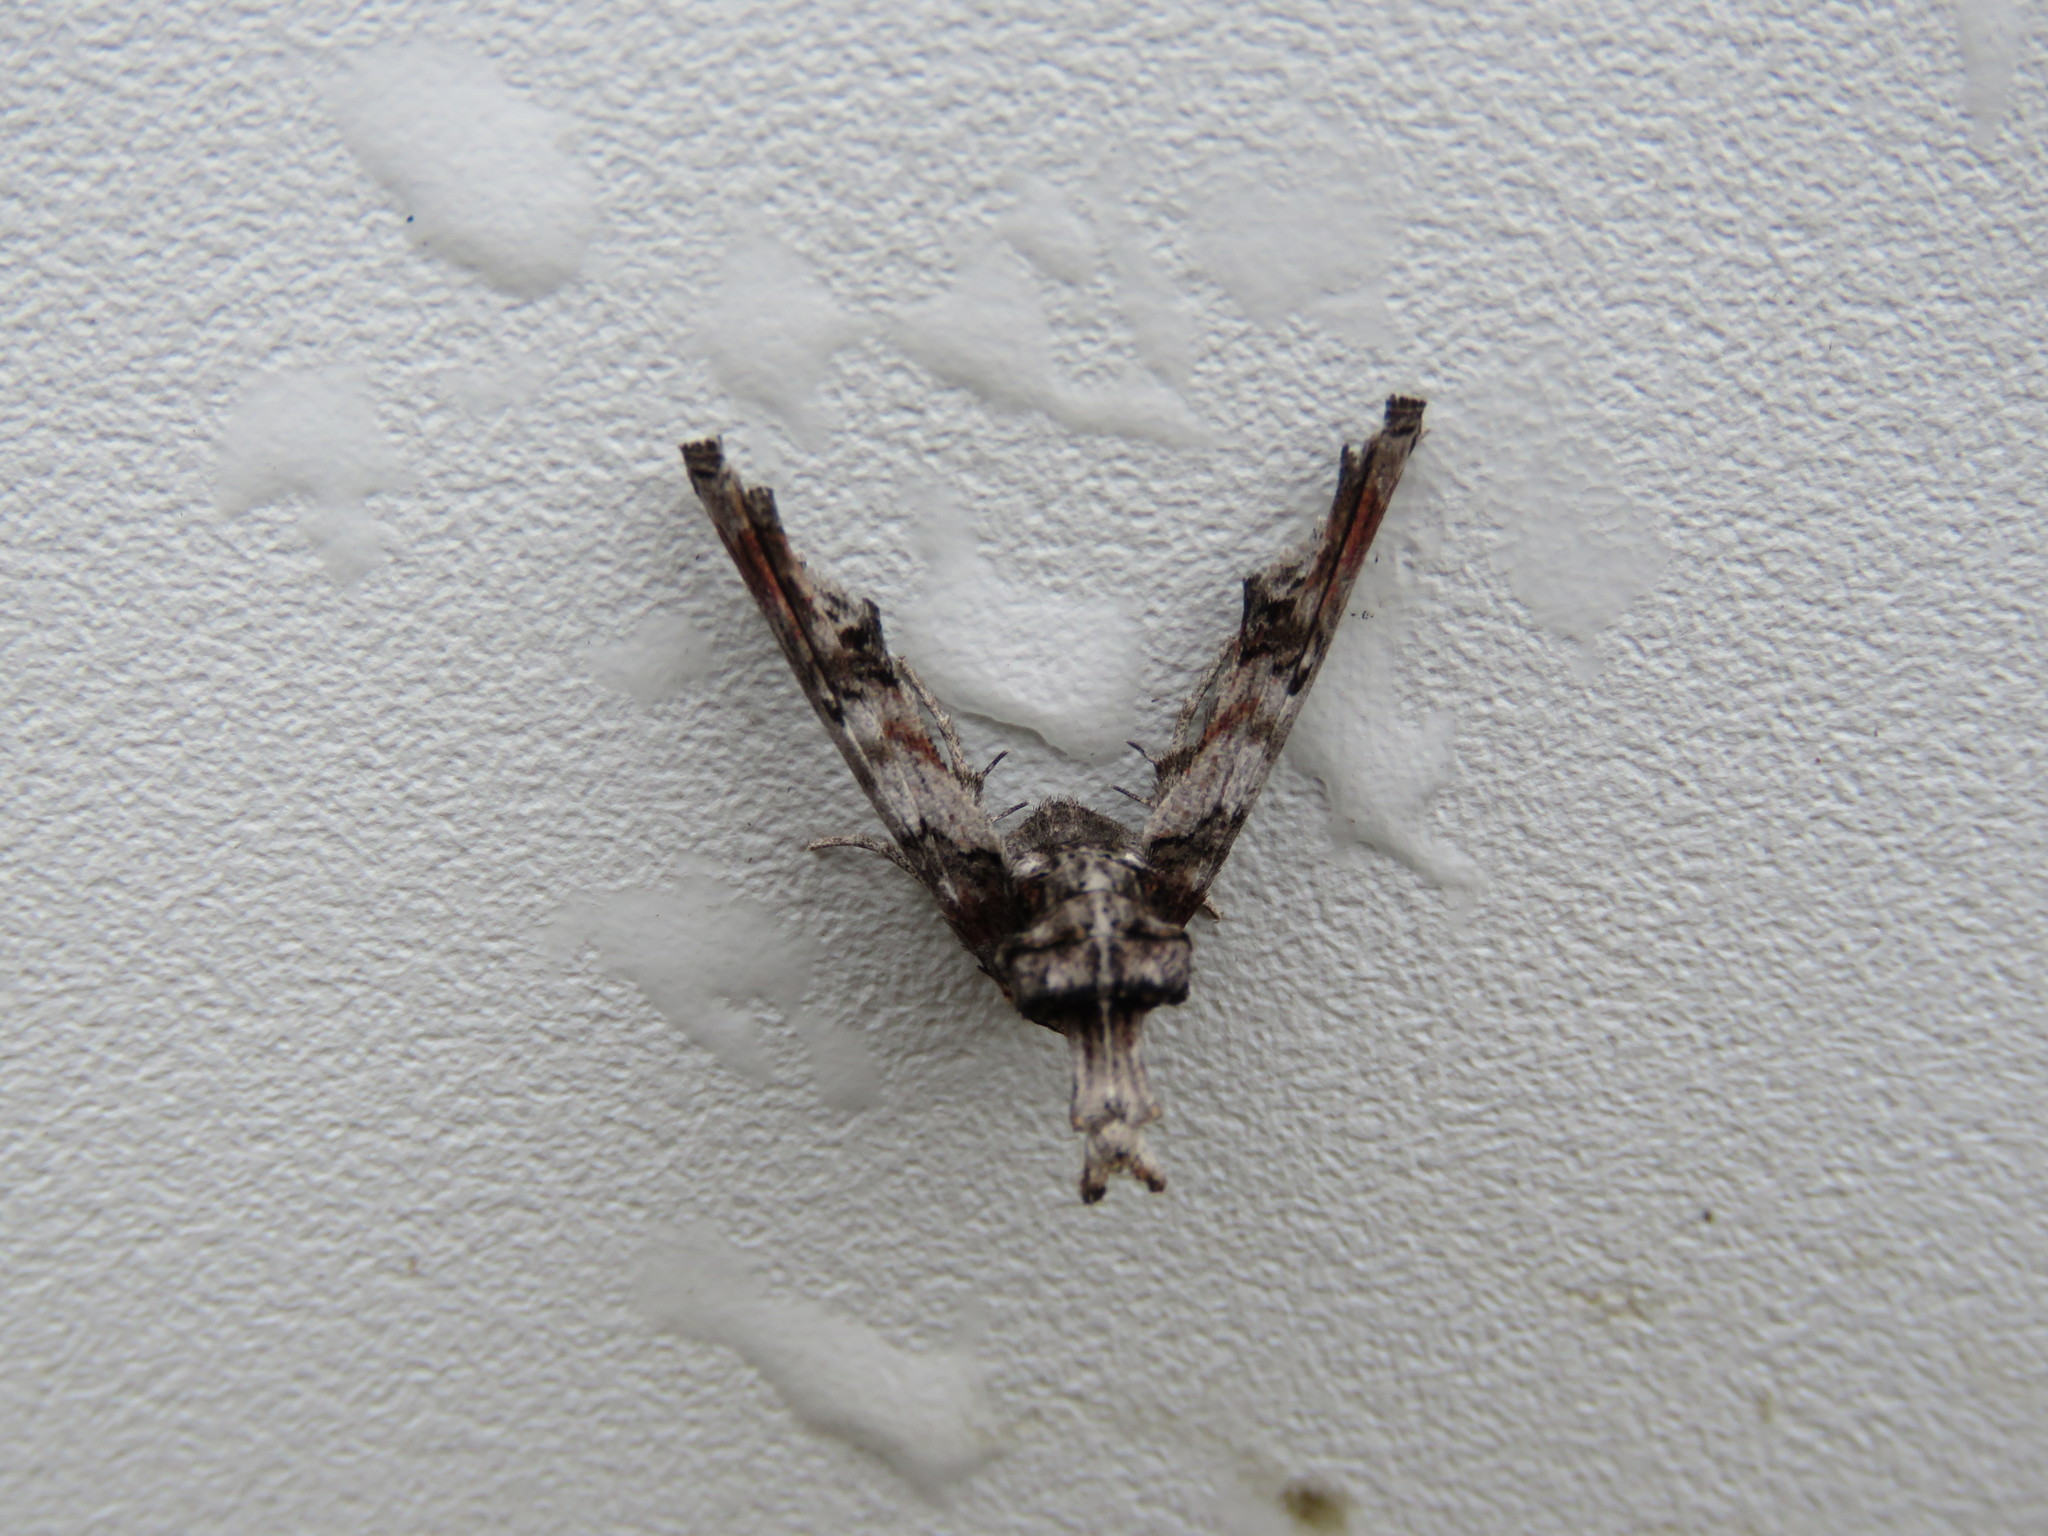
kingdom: Animalia
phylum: Arthropoda
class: Insecta
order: Lepidoptera
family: Euteliidae
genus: Marathyssa
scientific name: Marathyssa inficita
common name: Dark marathyssa moth
